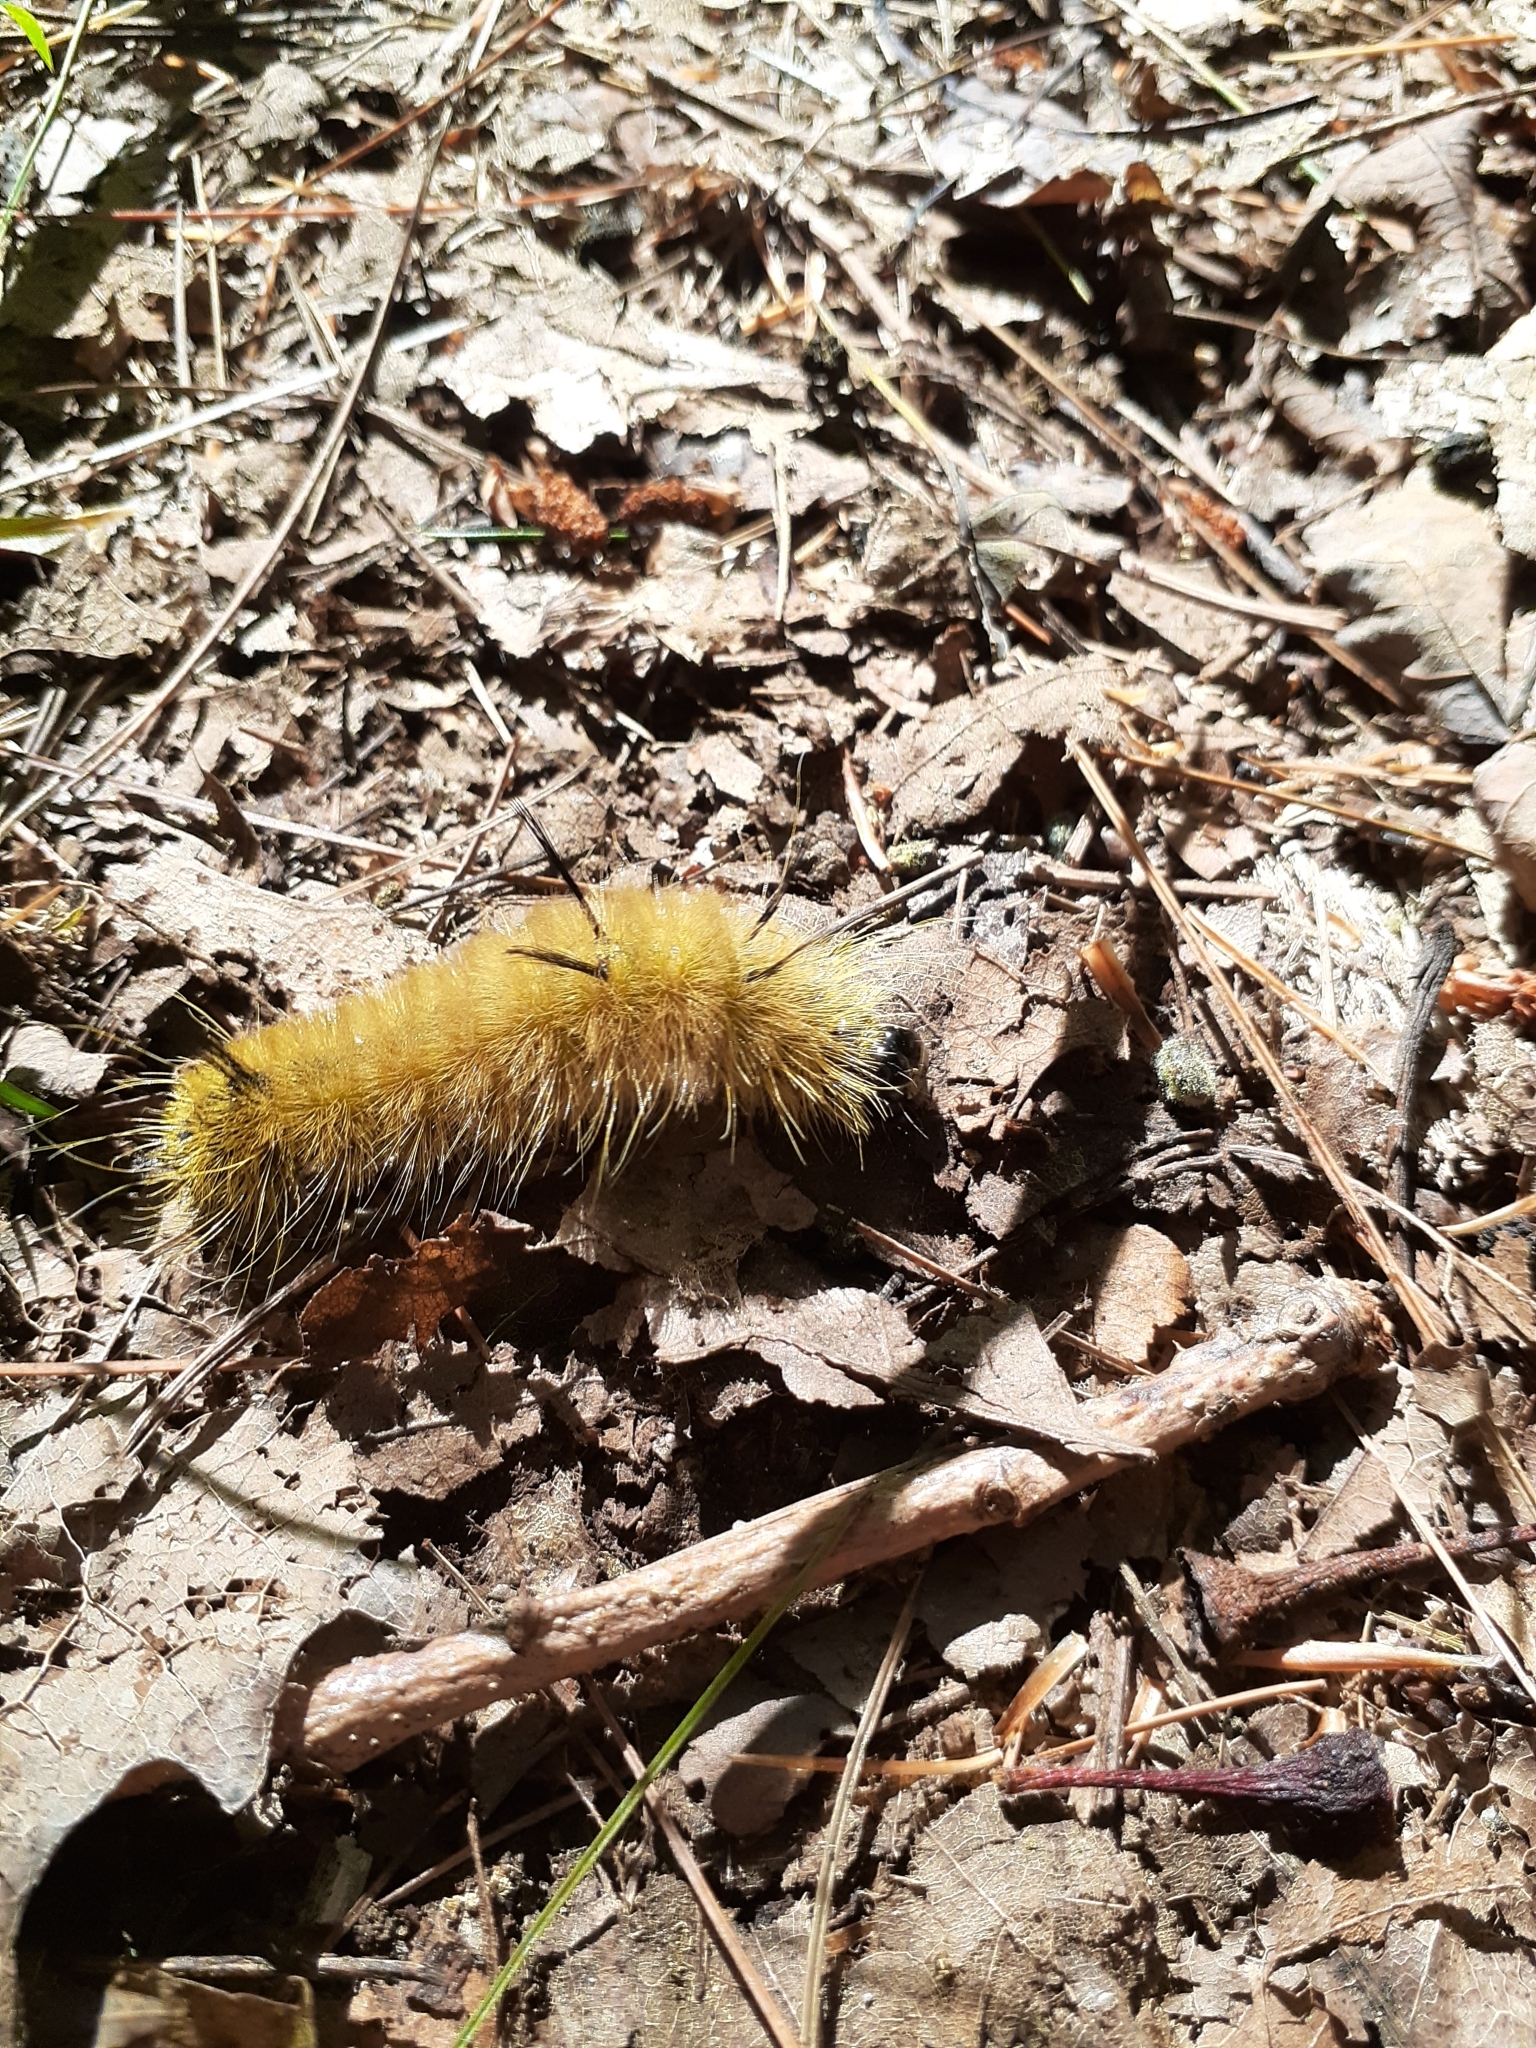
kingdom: Animalia
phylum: Arthropoda
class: Insecta
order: Lepidoptera
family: Noctuidae
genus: Acronicta
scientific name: Acronicta americana
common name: American dagger
